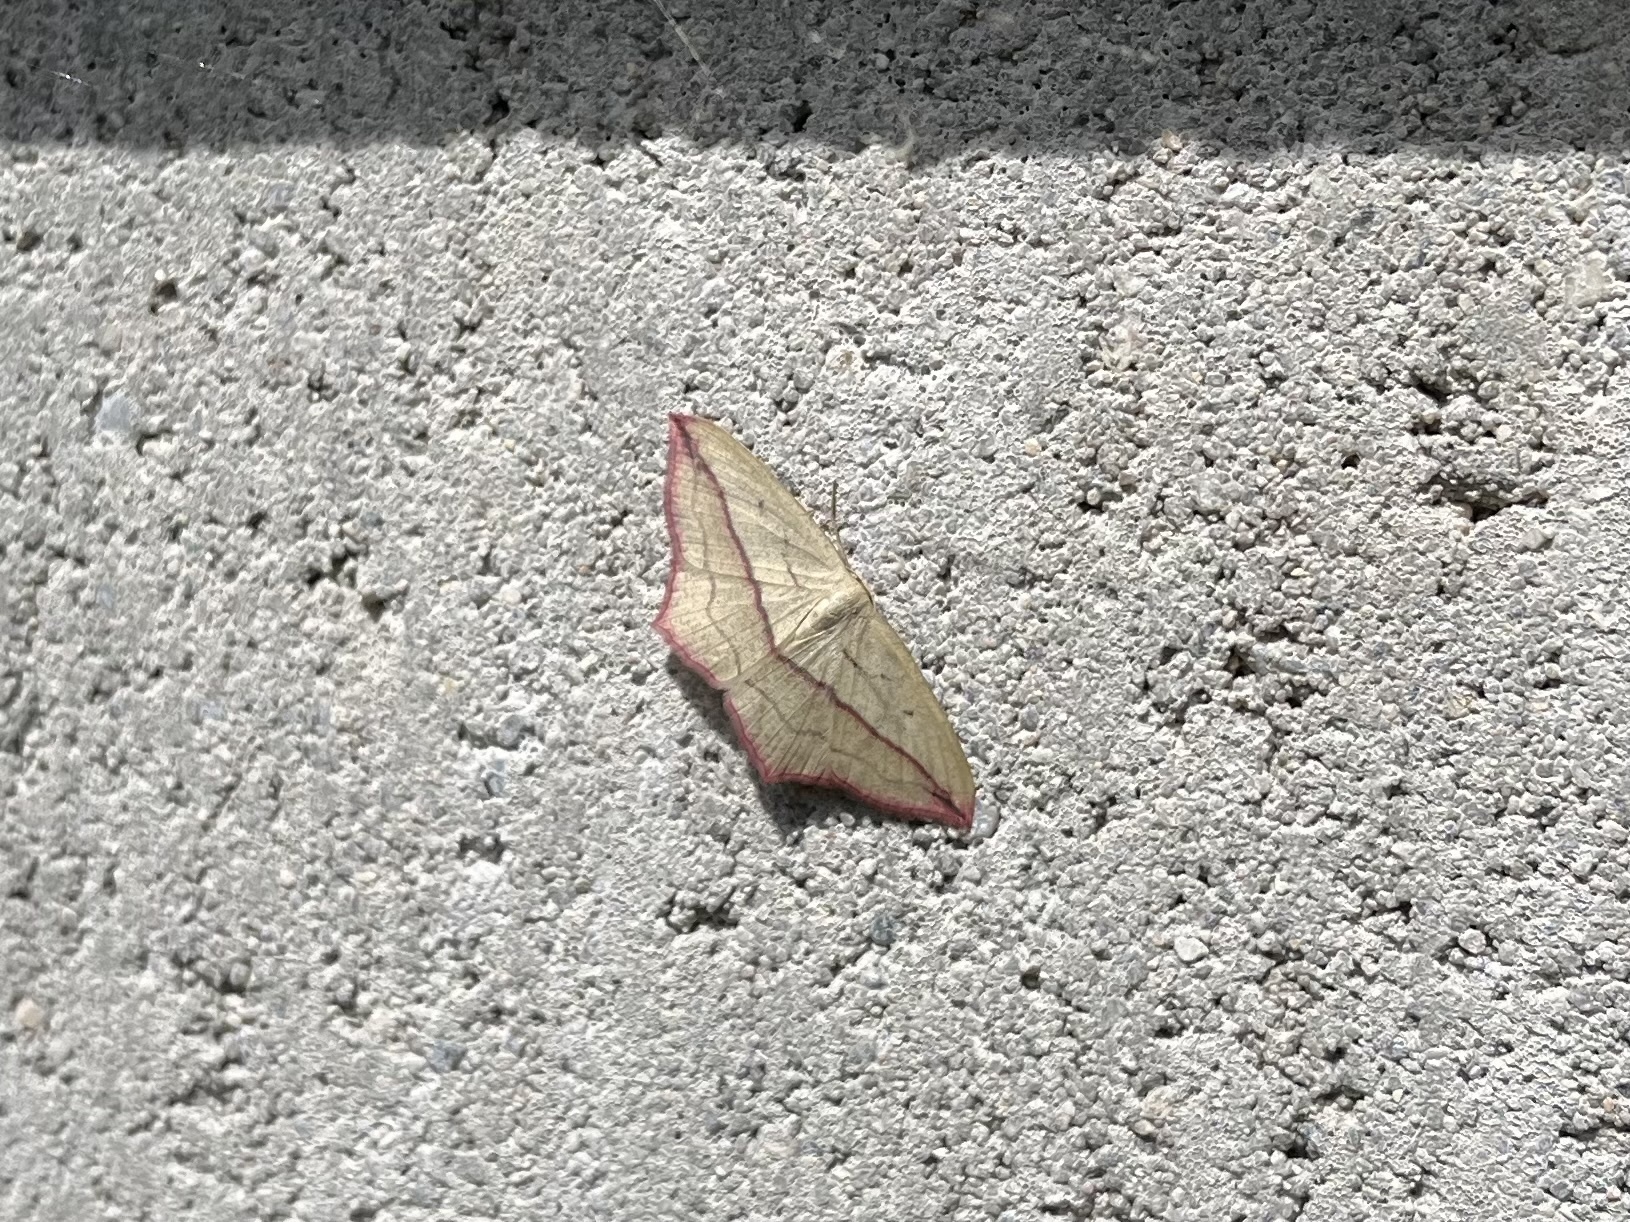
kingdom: Animalia
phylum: Arthropoda
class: Insecta
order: Lepidoptera
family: Geometridae
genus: Timandra
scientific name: Timandra comae
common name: Blood-vein
